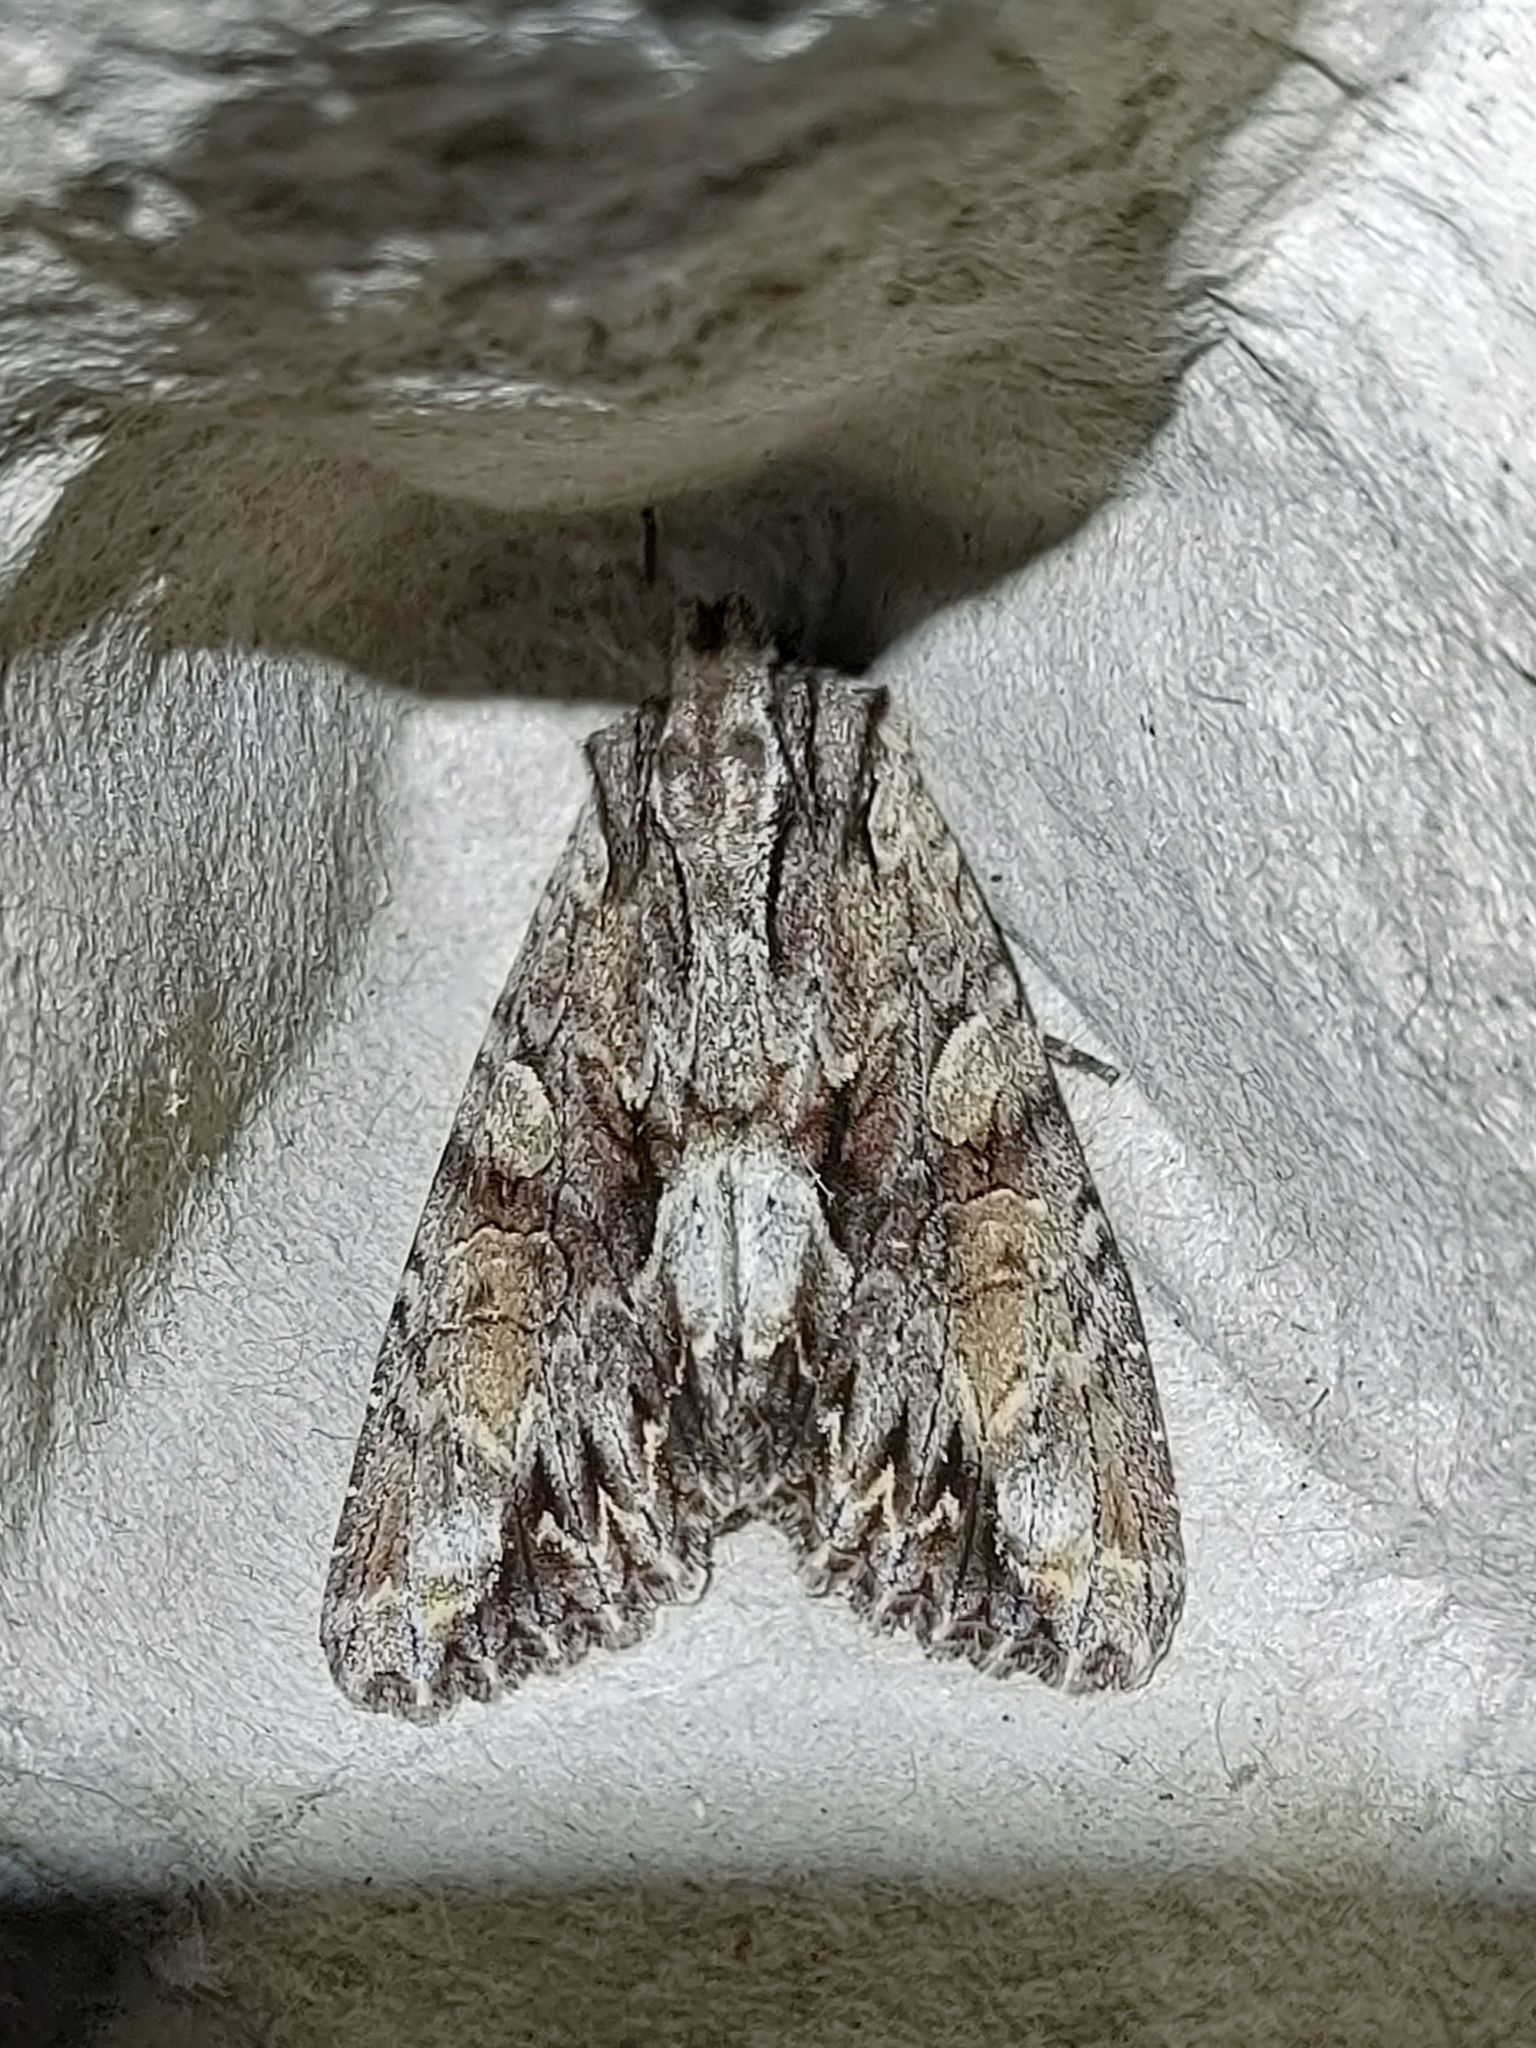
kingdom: Animalia
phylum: Arthropoda
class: Insecta
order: Lepidoptera
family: Noctuidae
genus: Apamea
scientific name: Apamea monoglypha
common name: Dark arches
